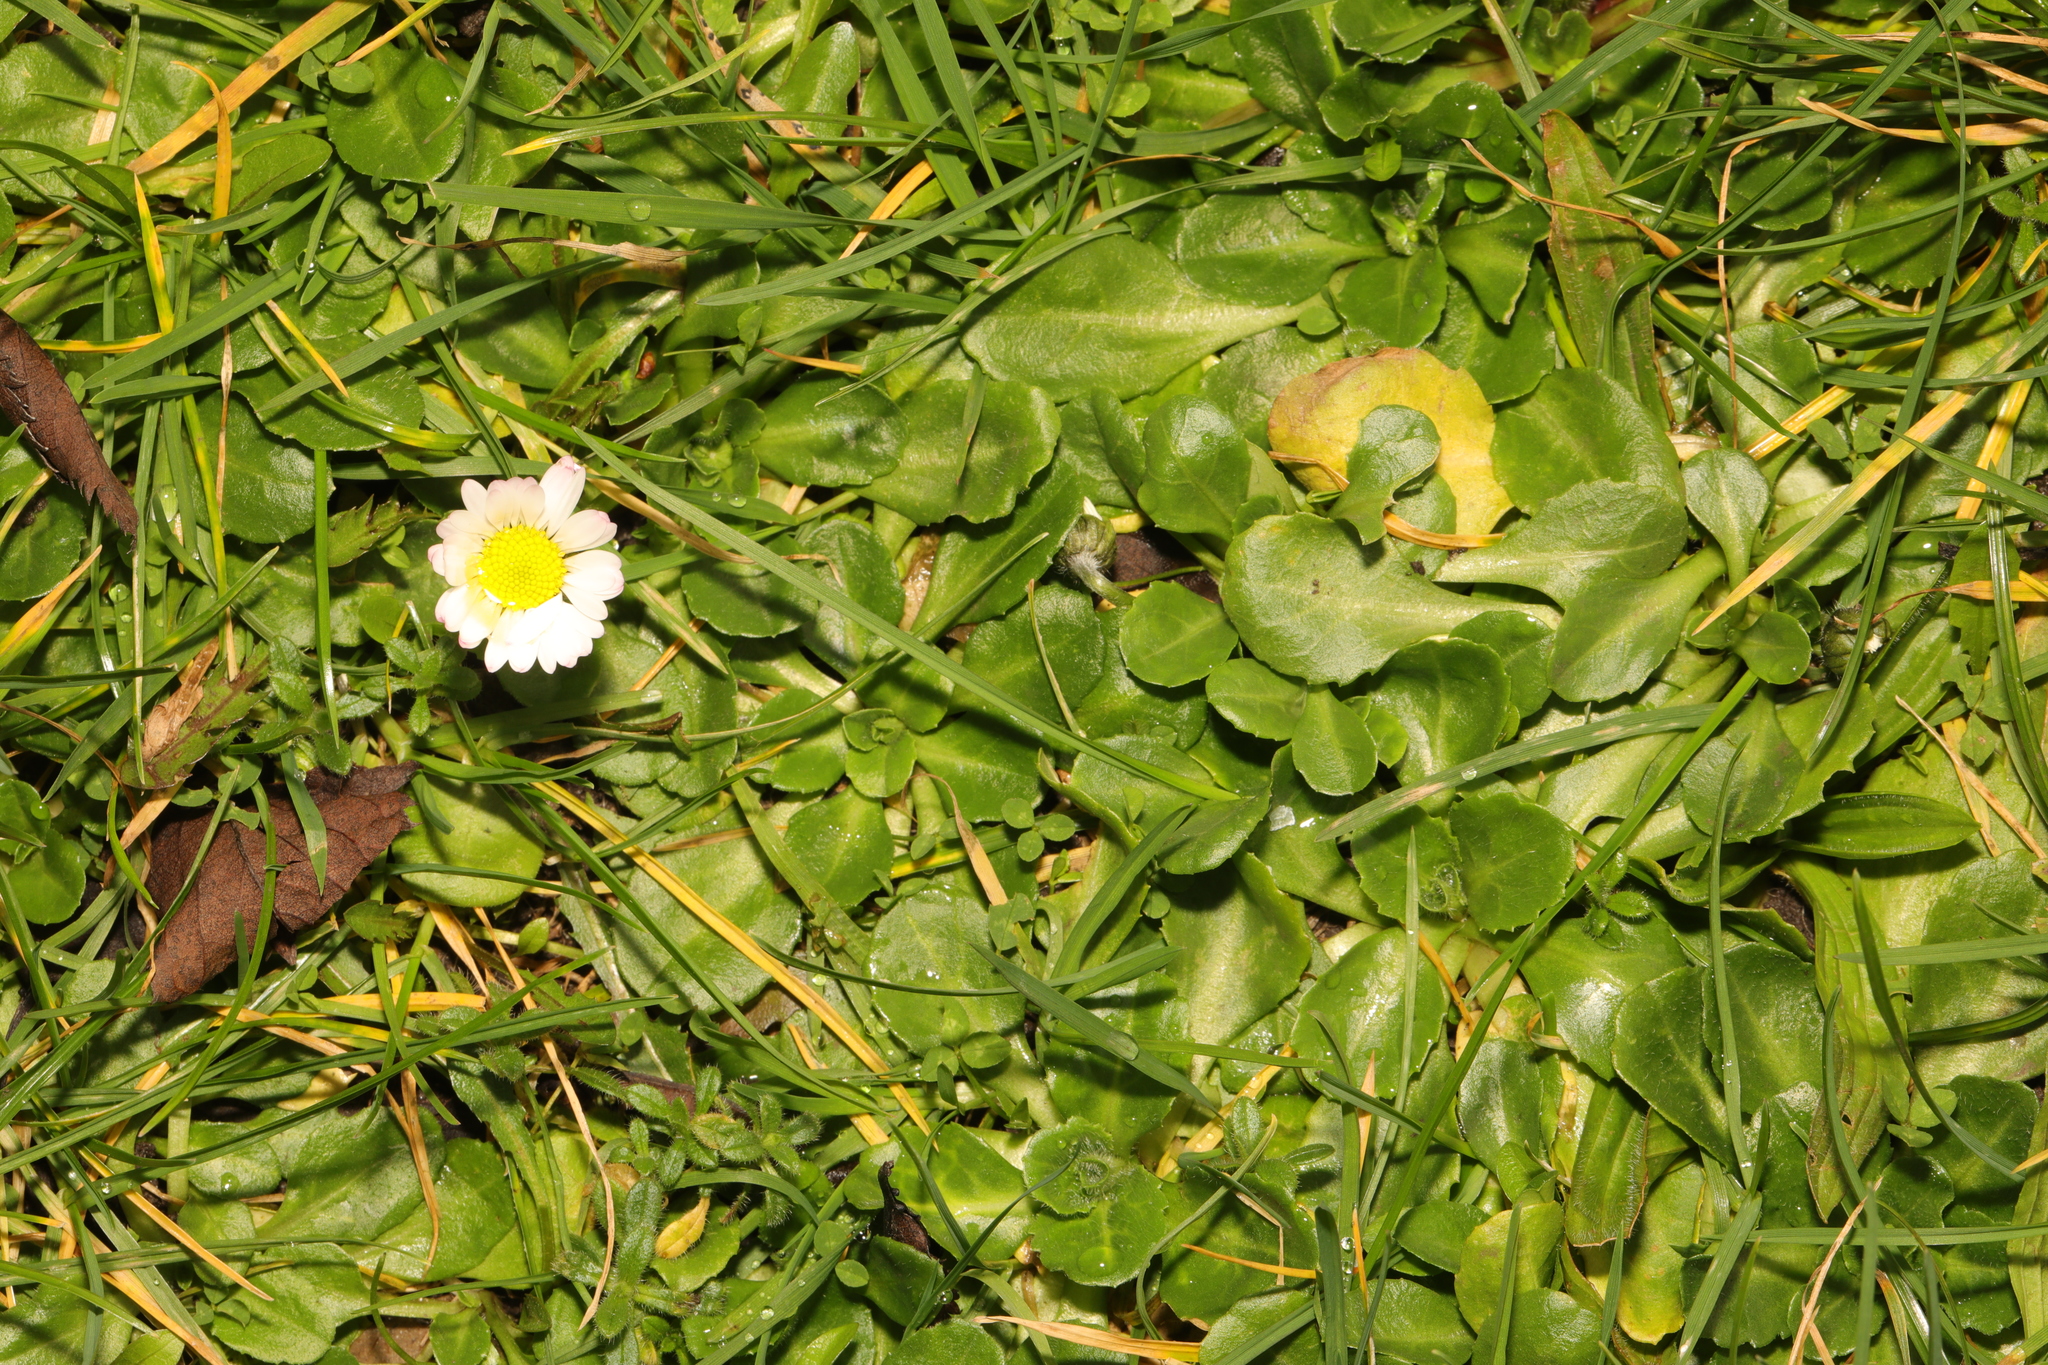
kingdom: Plantae
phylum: Tracheophyta
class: Magnoliopsida
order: Asterales
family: Asteraceae
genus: Bellis
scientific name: Bellis perennis
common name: Lawndaisy
